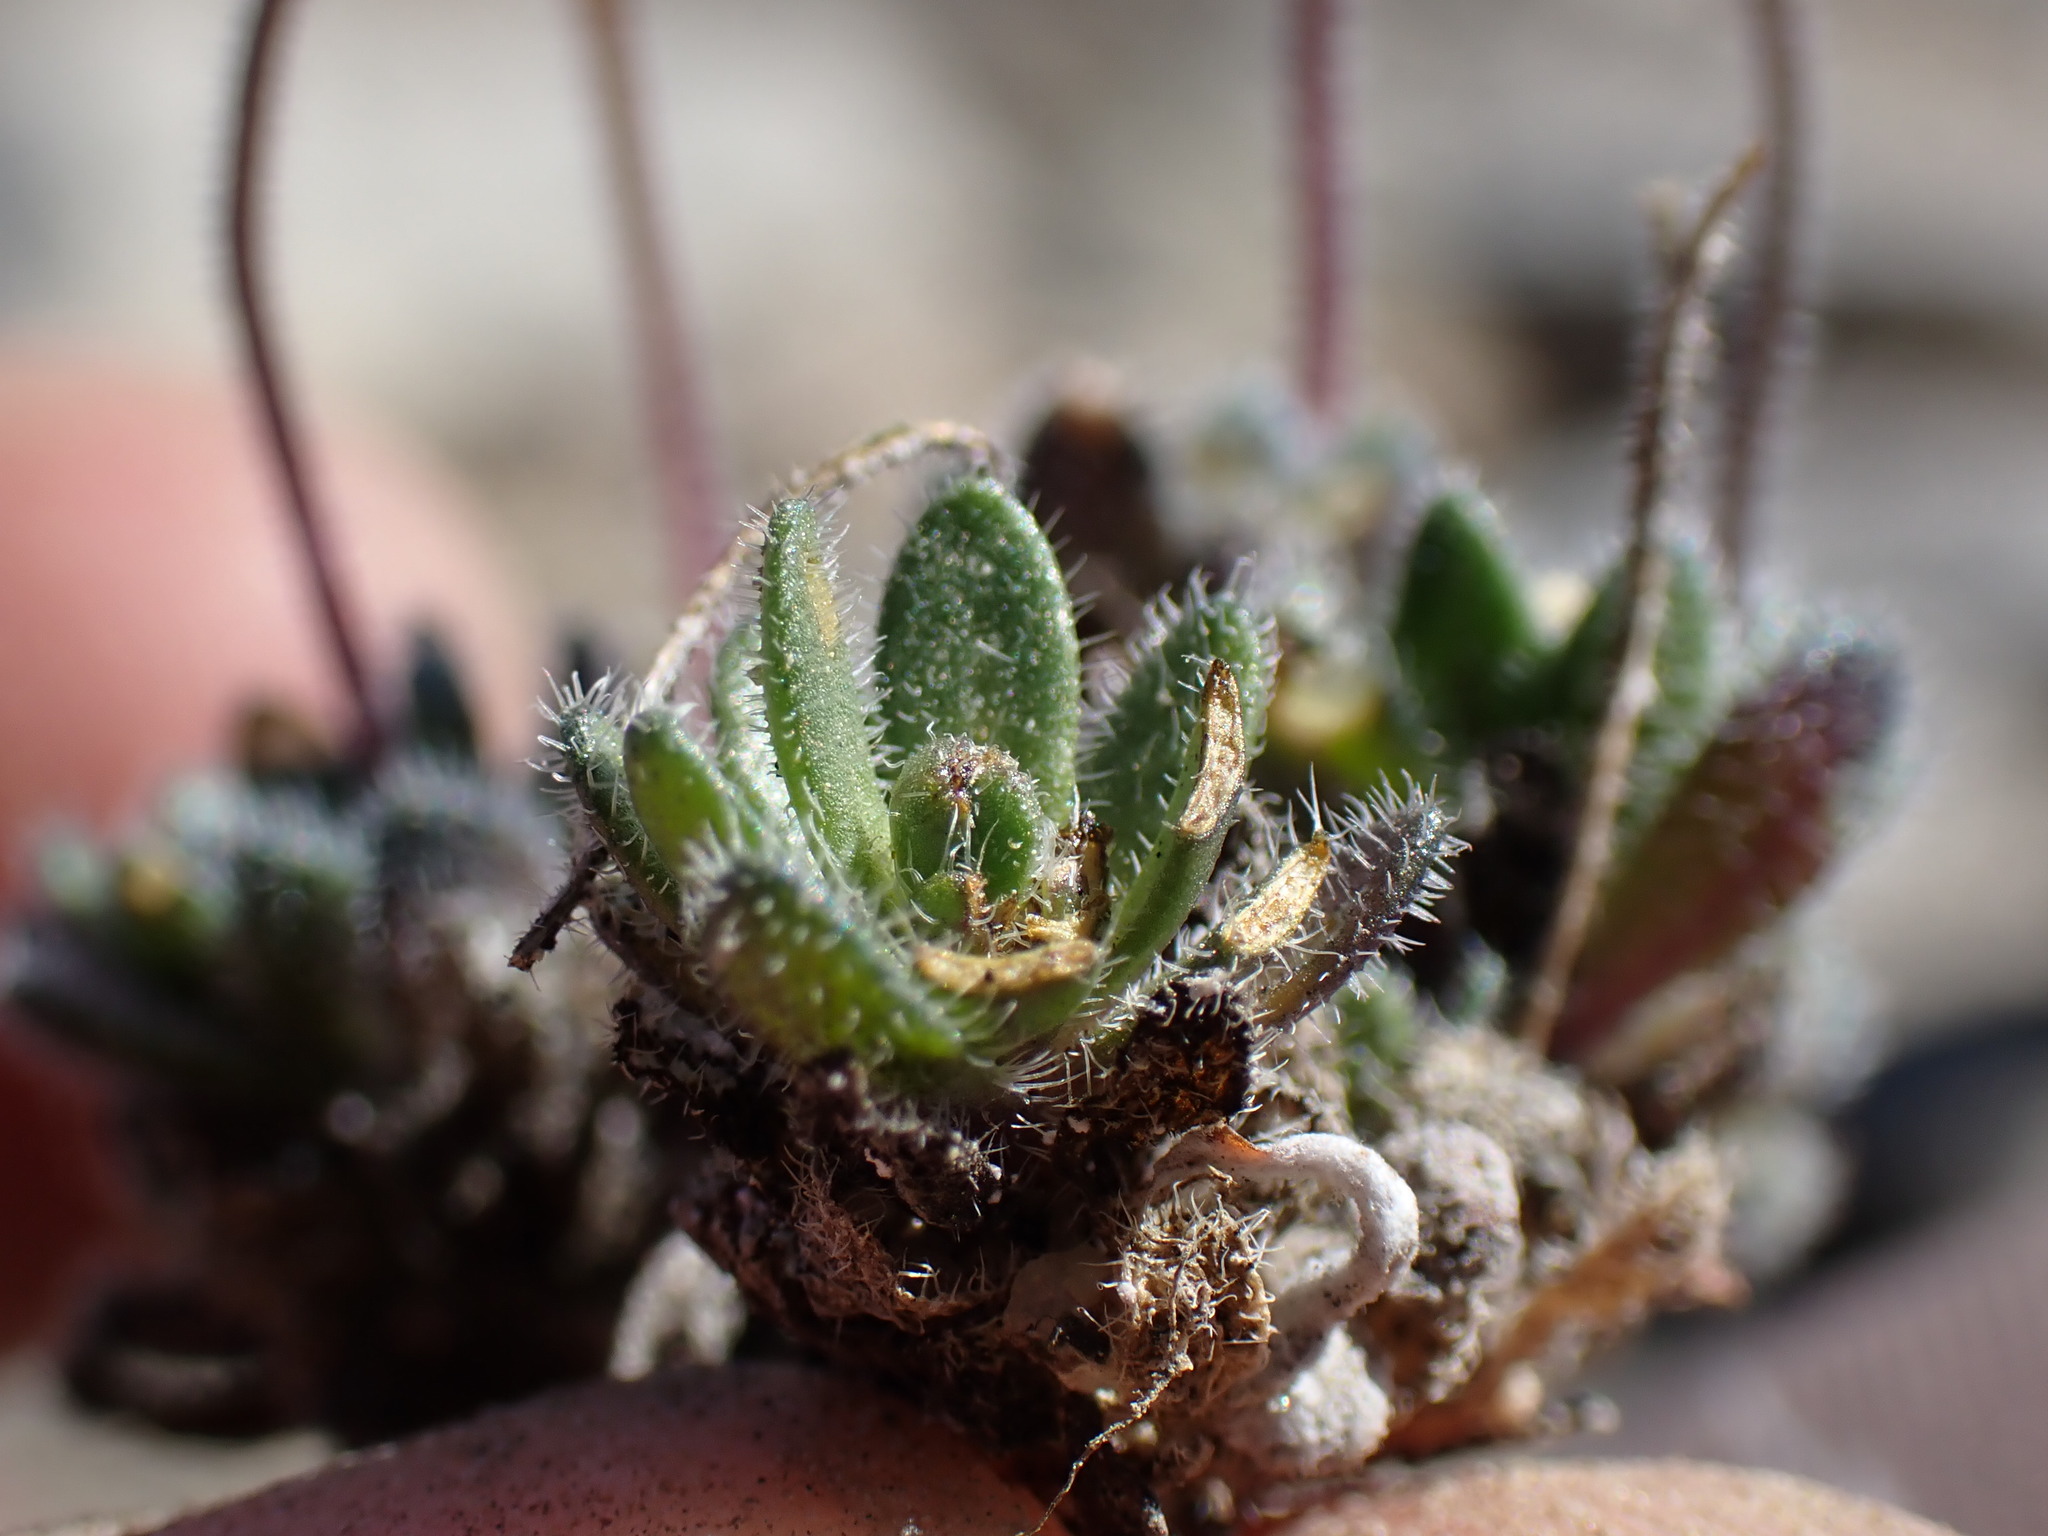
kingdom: Plantae
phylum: Tracheophyta
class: Magnoliopsida
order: Brassicales
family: Brassicaceae
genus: Draba
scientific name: Draba lemmonii
